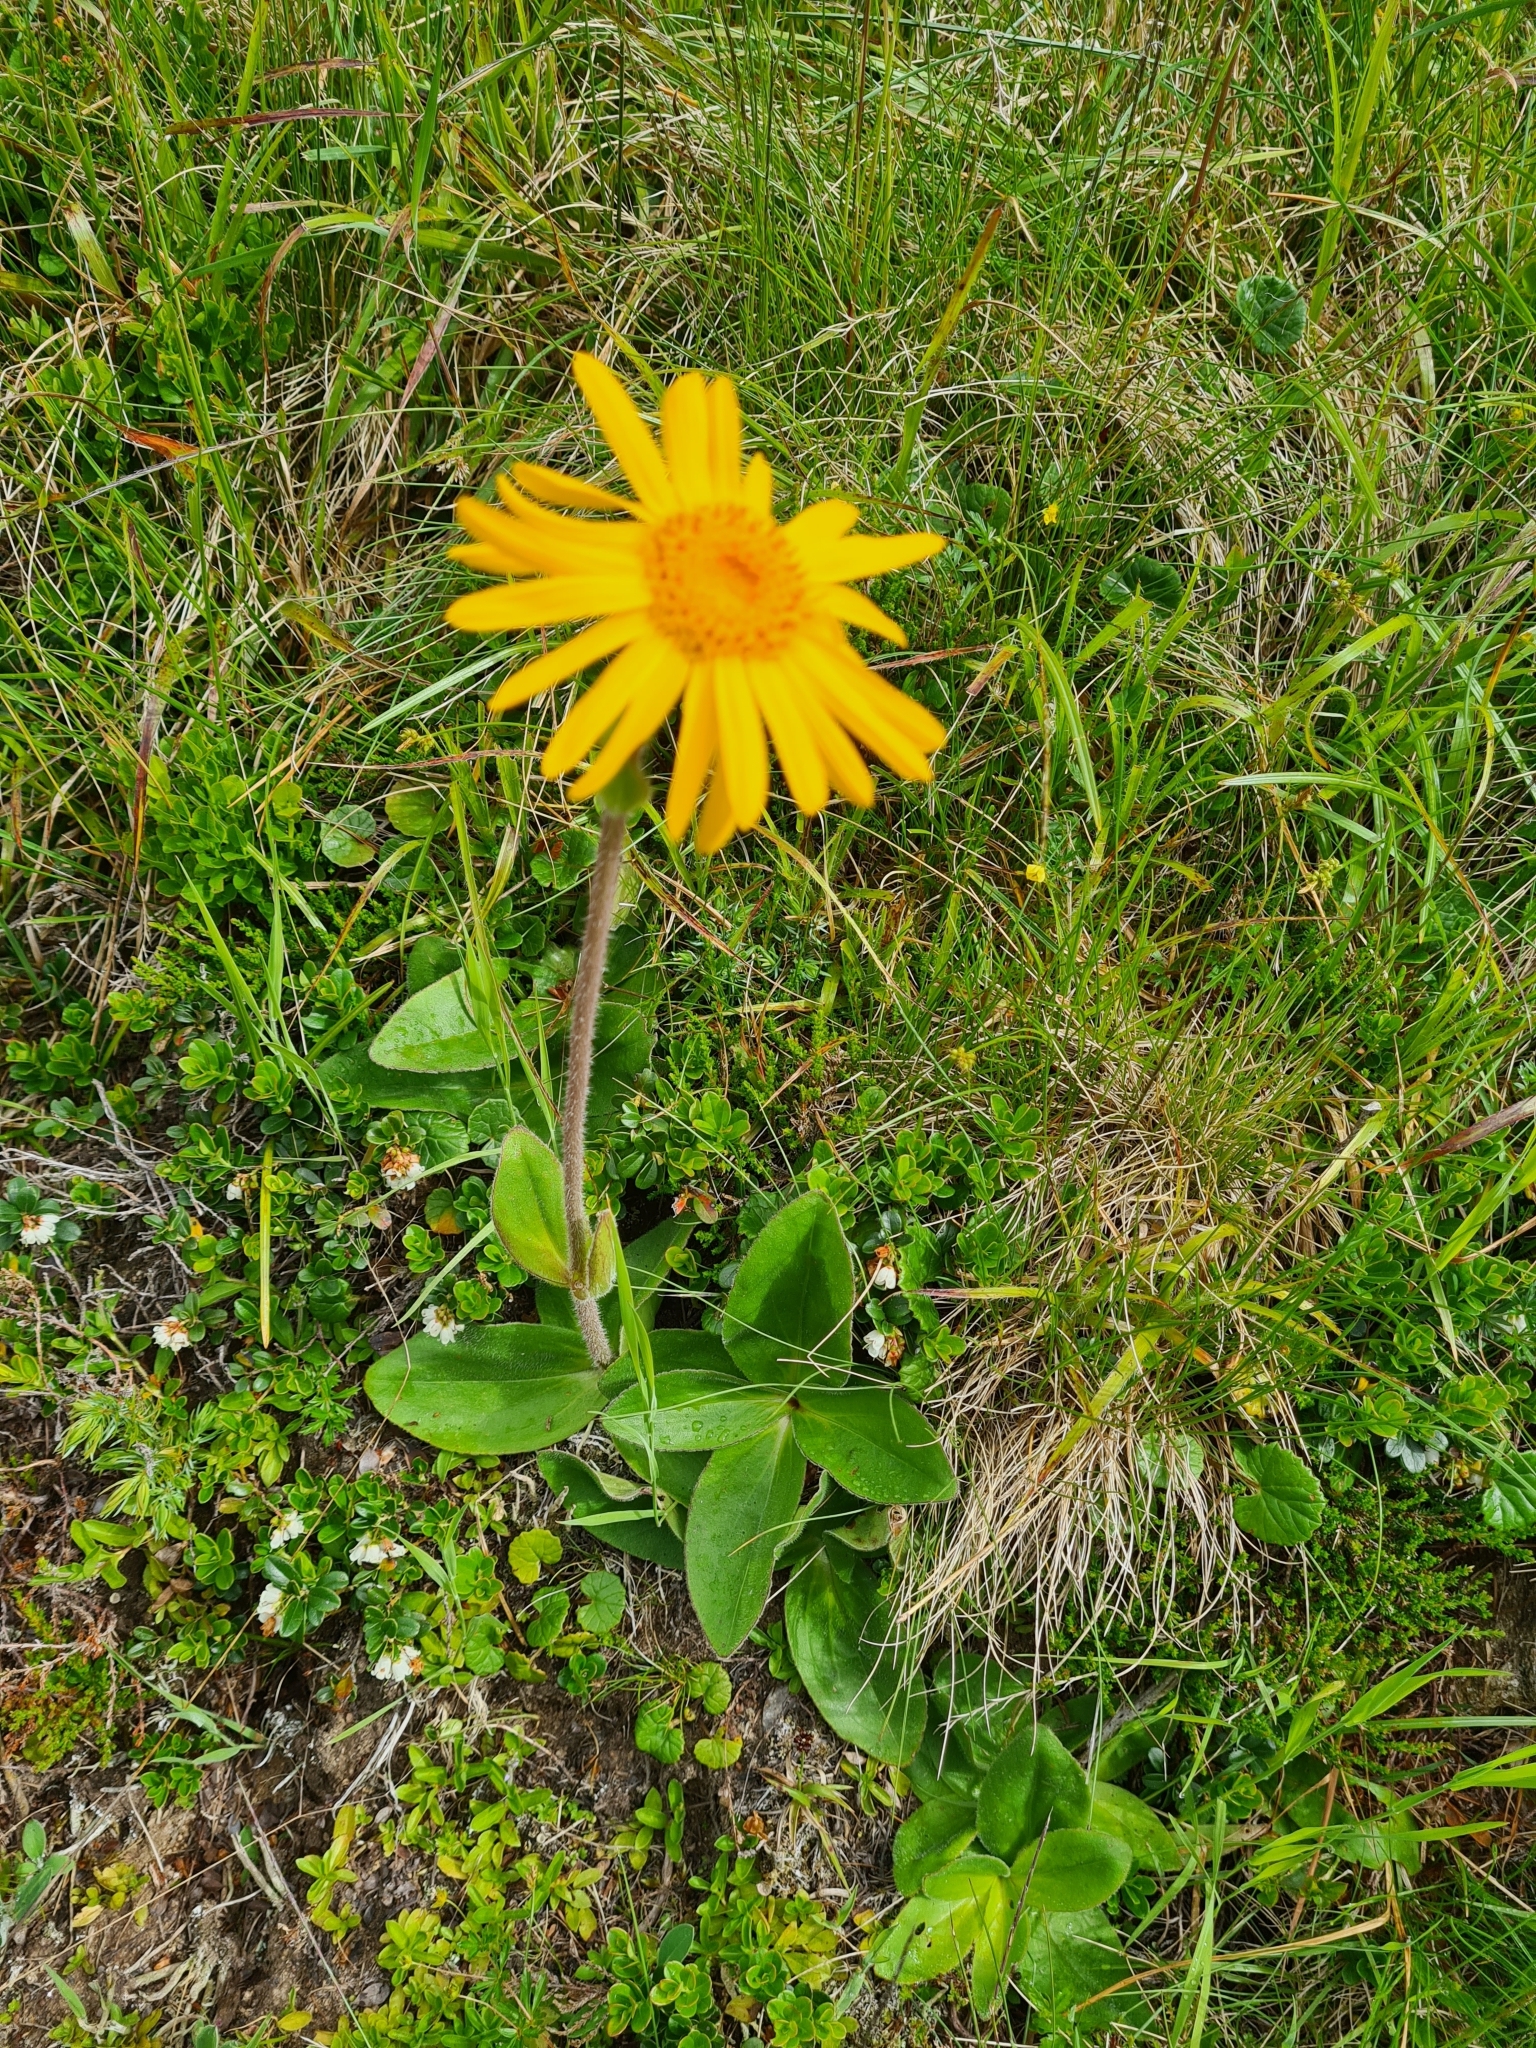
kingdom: Plantae
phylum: Tracheophyta
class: Magnoliopsida
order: Asterales
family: Asteraceae
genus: Arnica
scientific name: Arnica montana
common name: Leopard's bane
